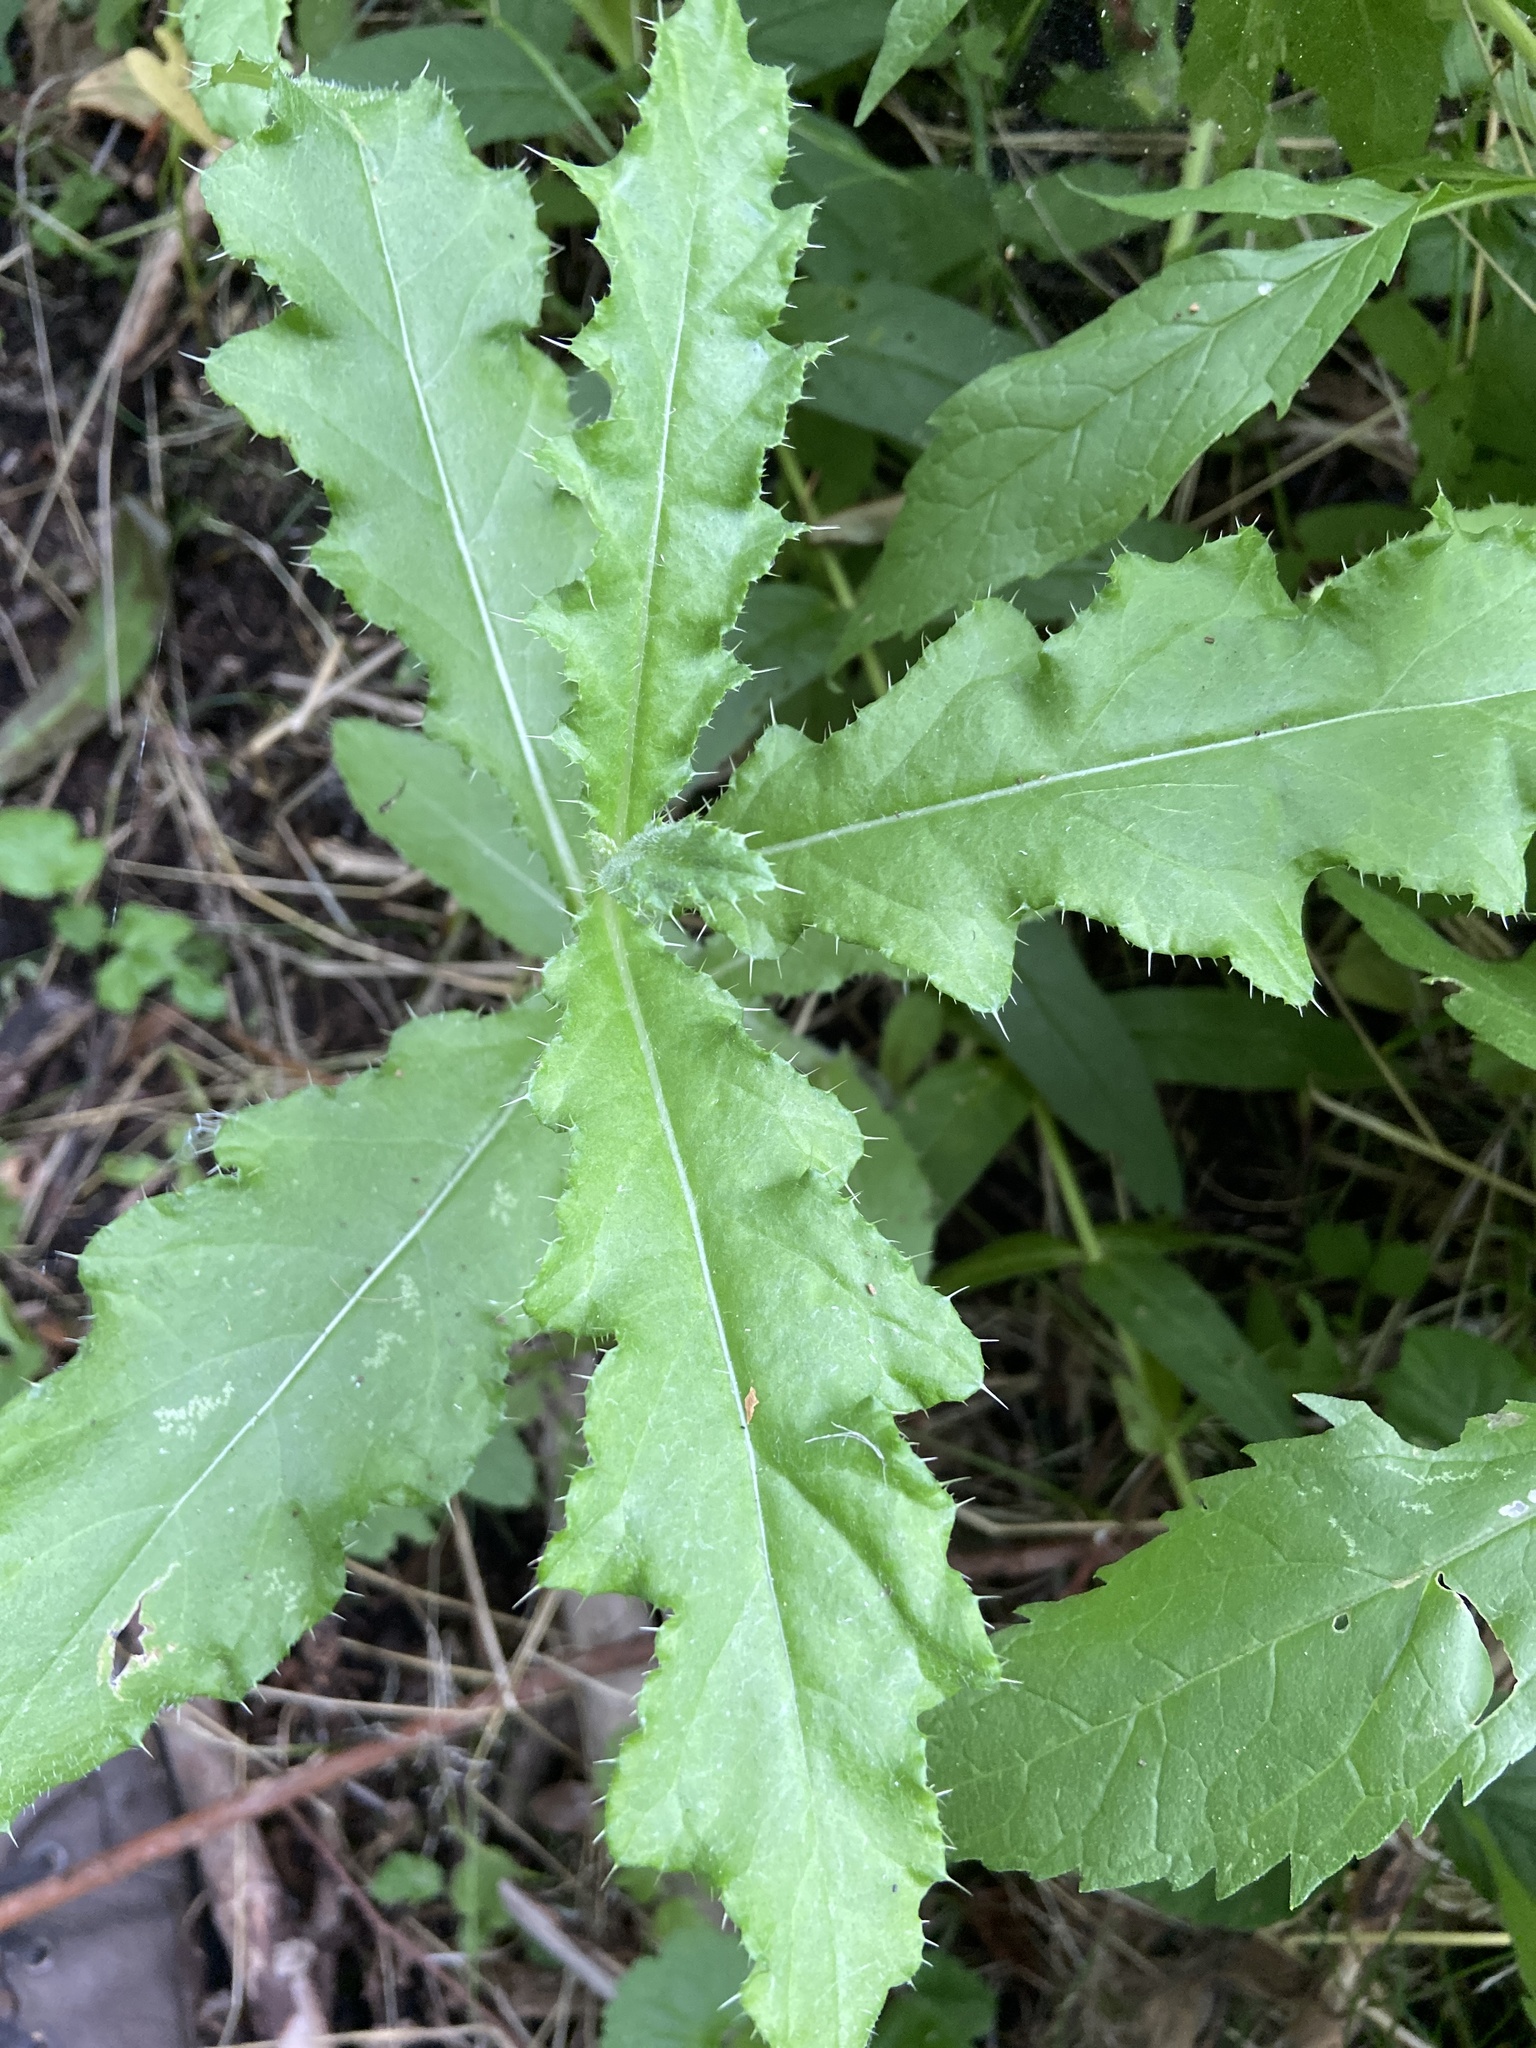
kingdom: Plantae
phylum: Tracheophyta
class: Magnoliopsida
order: Asterales
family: Asteraceae
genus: Cirsium
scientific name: Cirsium arvense
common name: Creeping thistle
